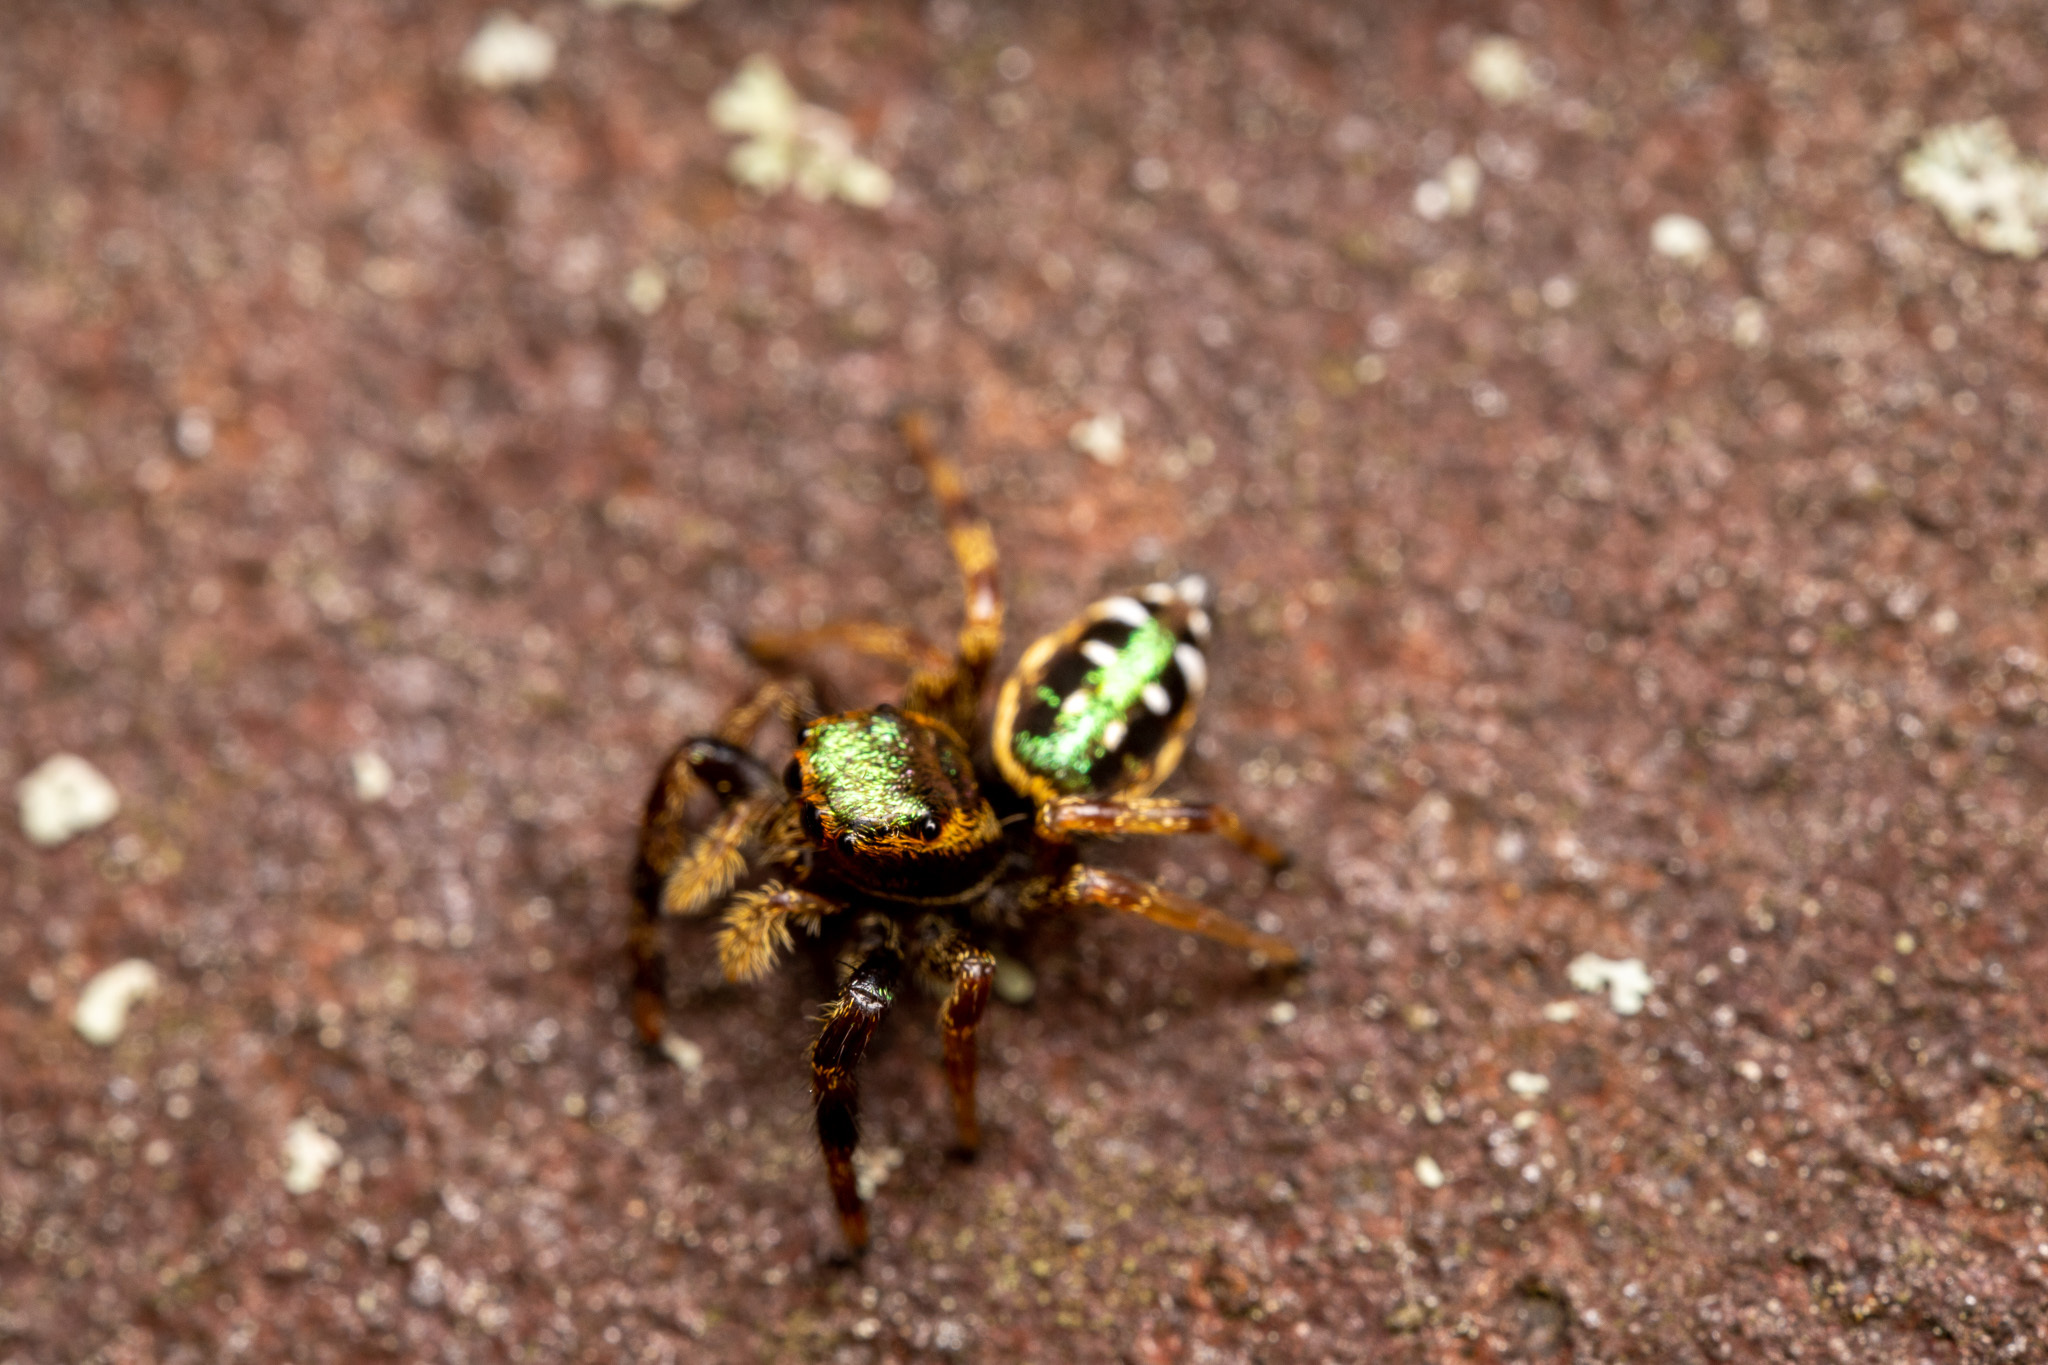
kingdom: Animalia
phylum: Arthropoda
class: Arachnida
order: Araneae
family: Salticidae
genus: Paraphidippus
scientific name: Paraphidippus aurantius
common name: Jumping spiders
